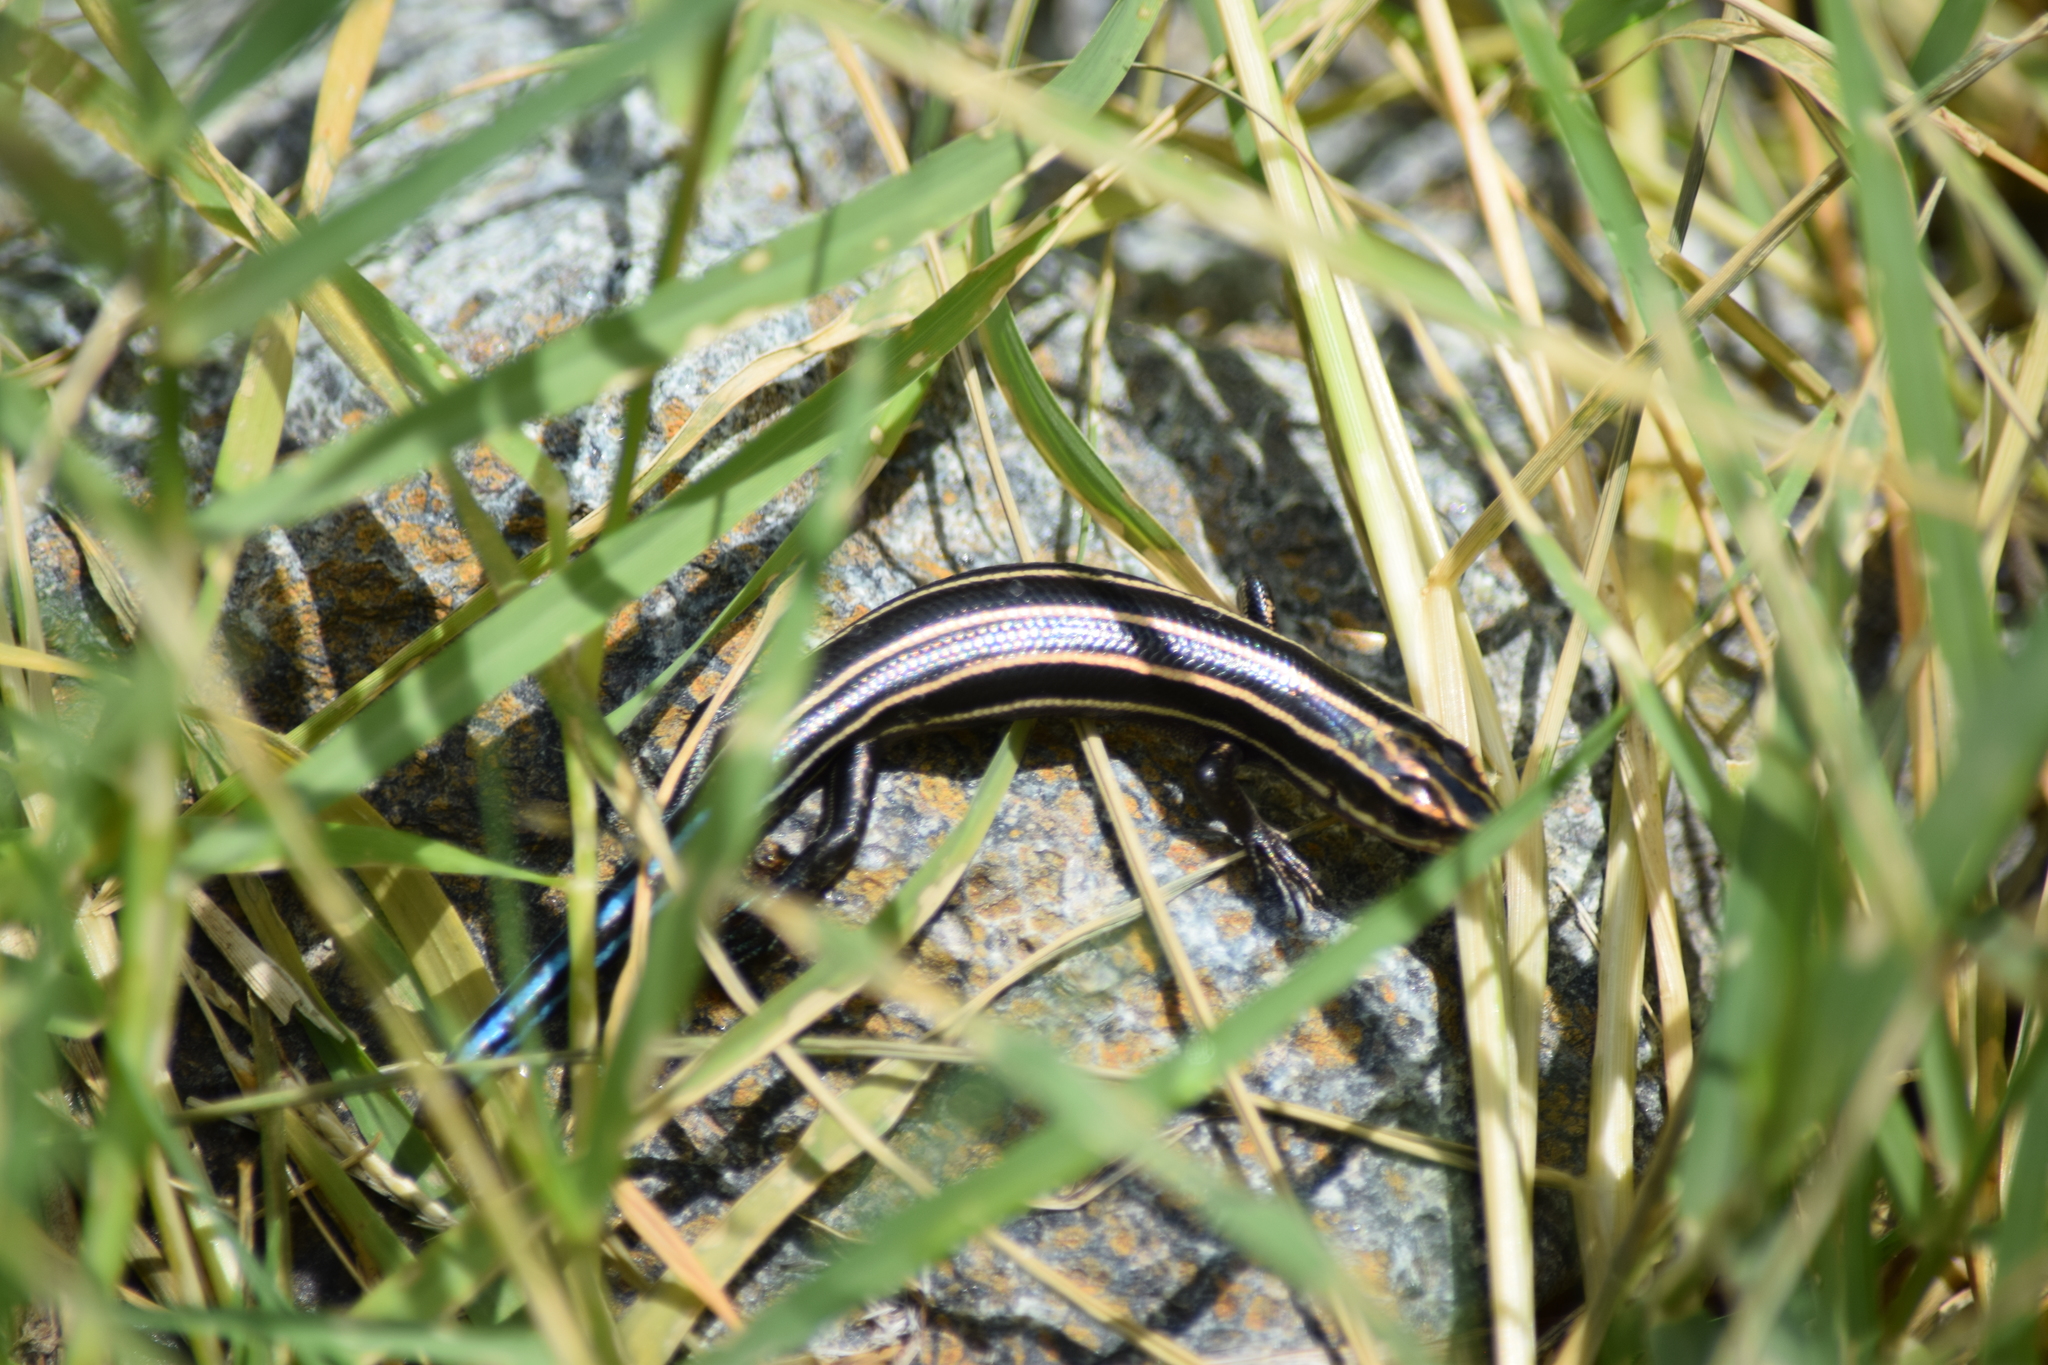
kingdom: Animalia
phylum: Chordata
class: Squamata
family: Scincidae
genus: Plestiodon
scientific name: Plestiodon fasciatus
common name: Five-lined skink
